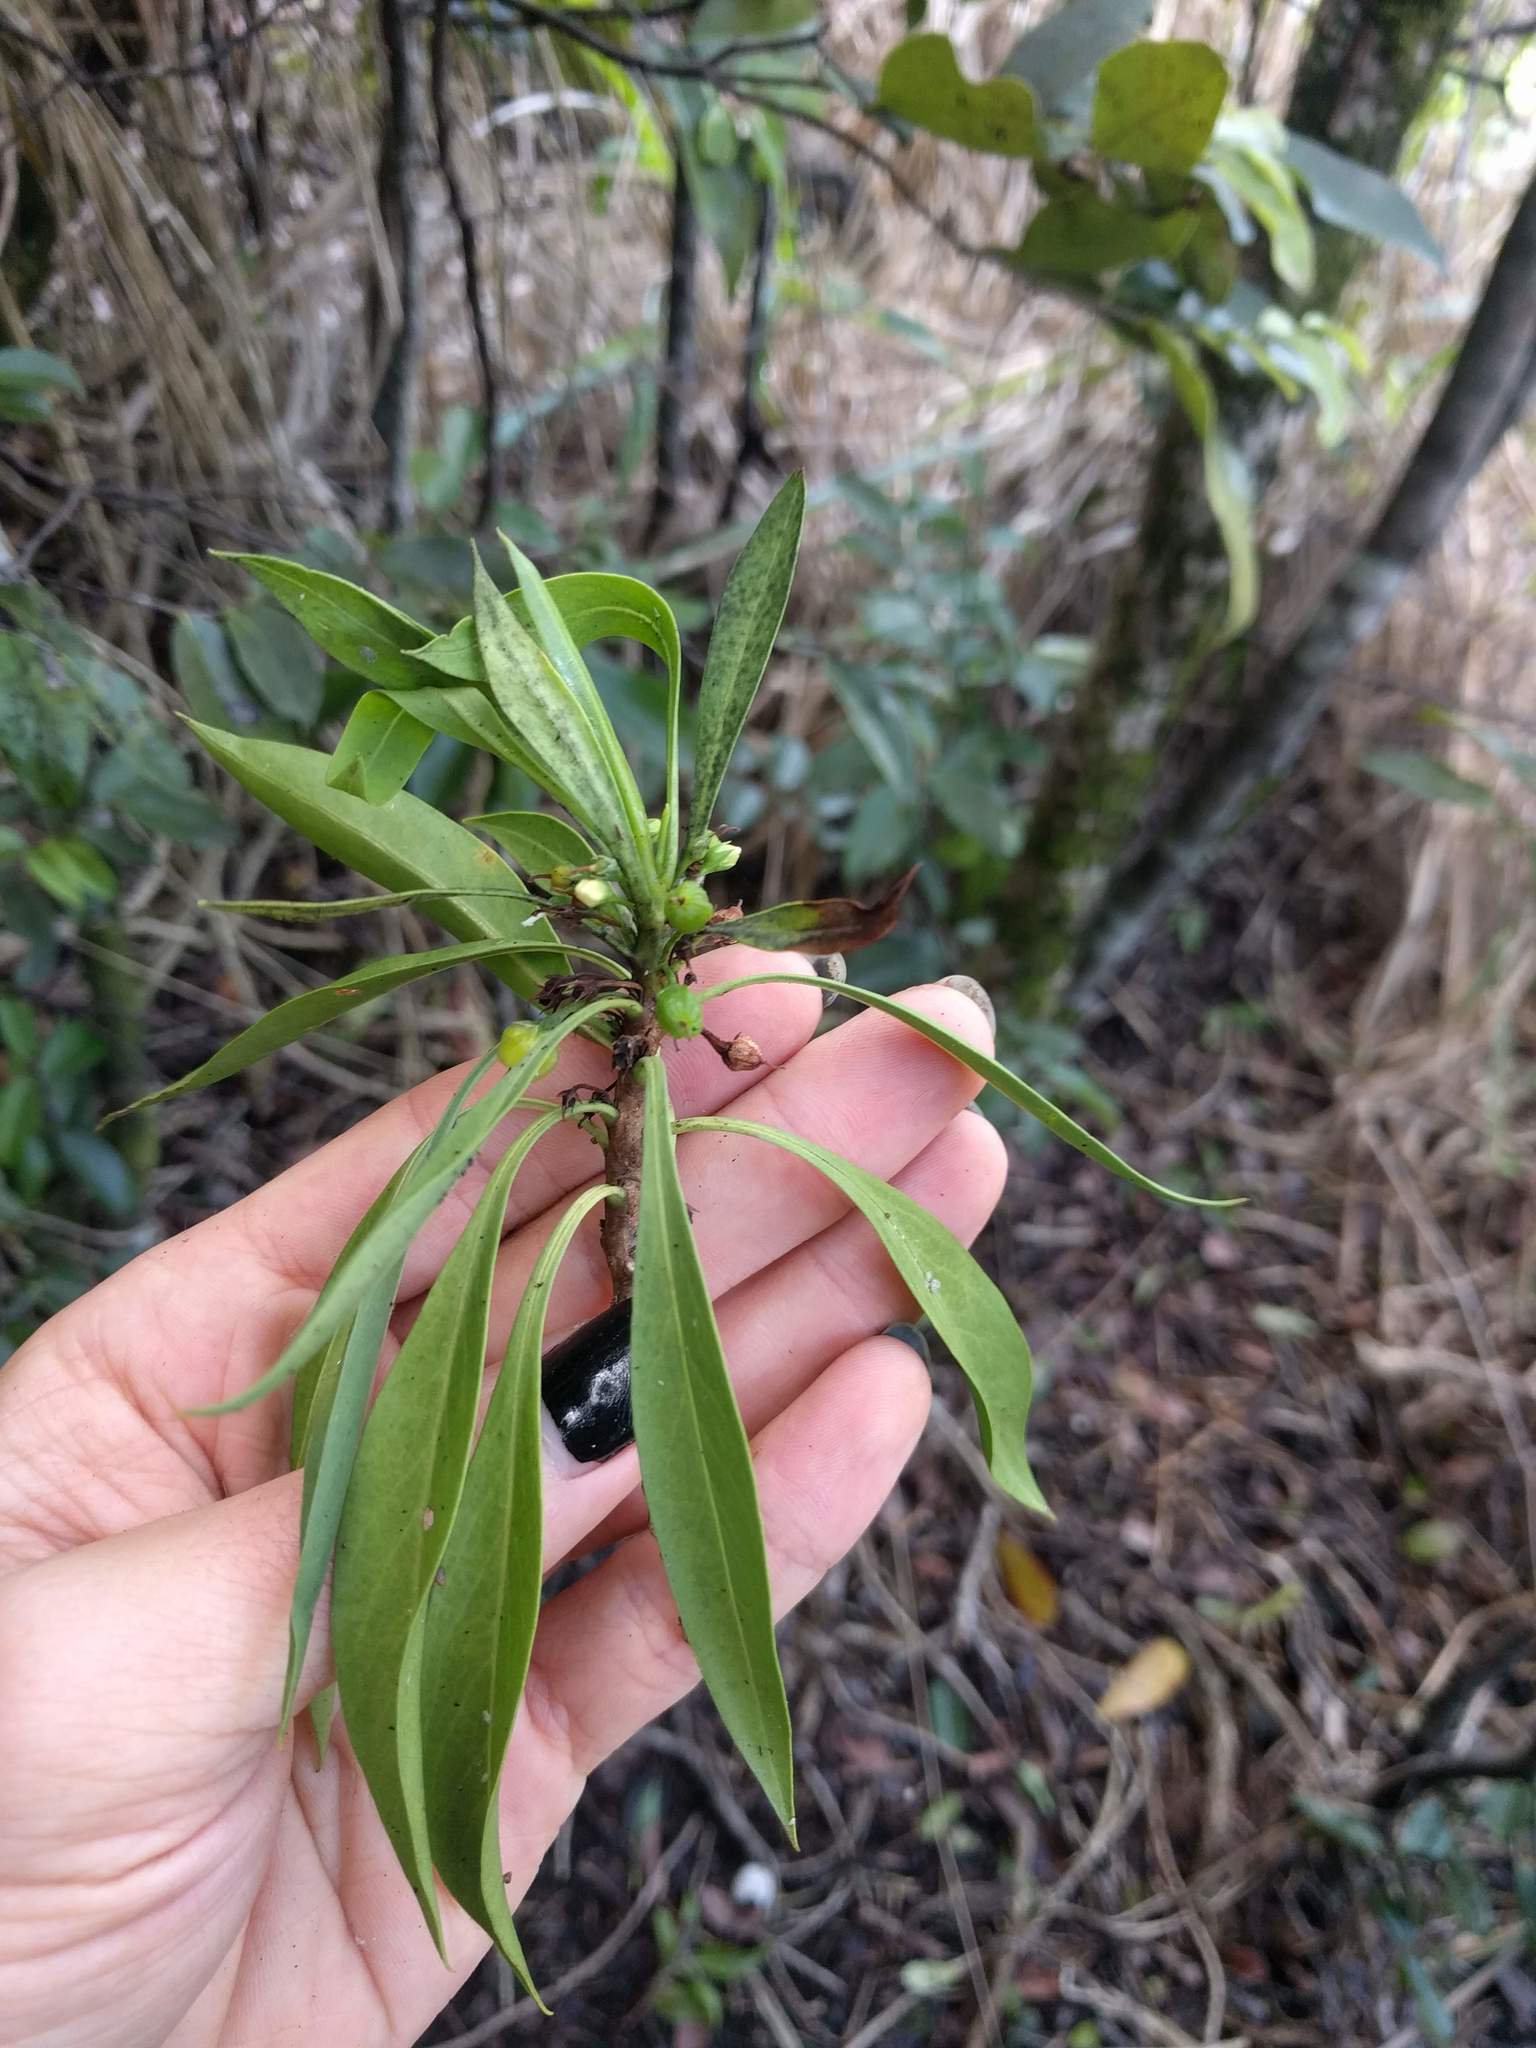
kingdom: Plantae
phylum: Tracheophyta
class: Magnoliopsida
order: Lamiales
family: Scrophulariaceae
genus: Myoporum
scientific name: Myoporum sandwicense
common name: Bastard-sandalwood
